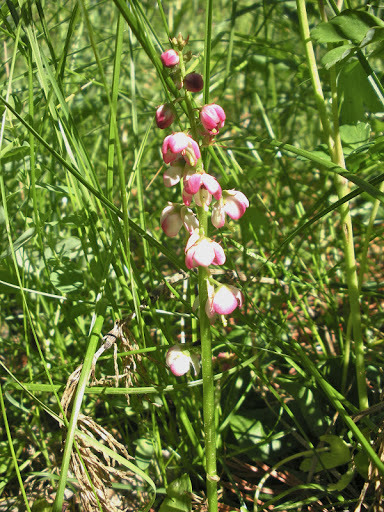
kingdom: Plantae
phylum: Tracheophyta
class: Magnoliopsida
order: Ericales
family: Ericaceae
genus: Pyrola
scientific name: Pyrola asarifolia
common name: Bog wintergreen
